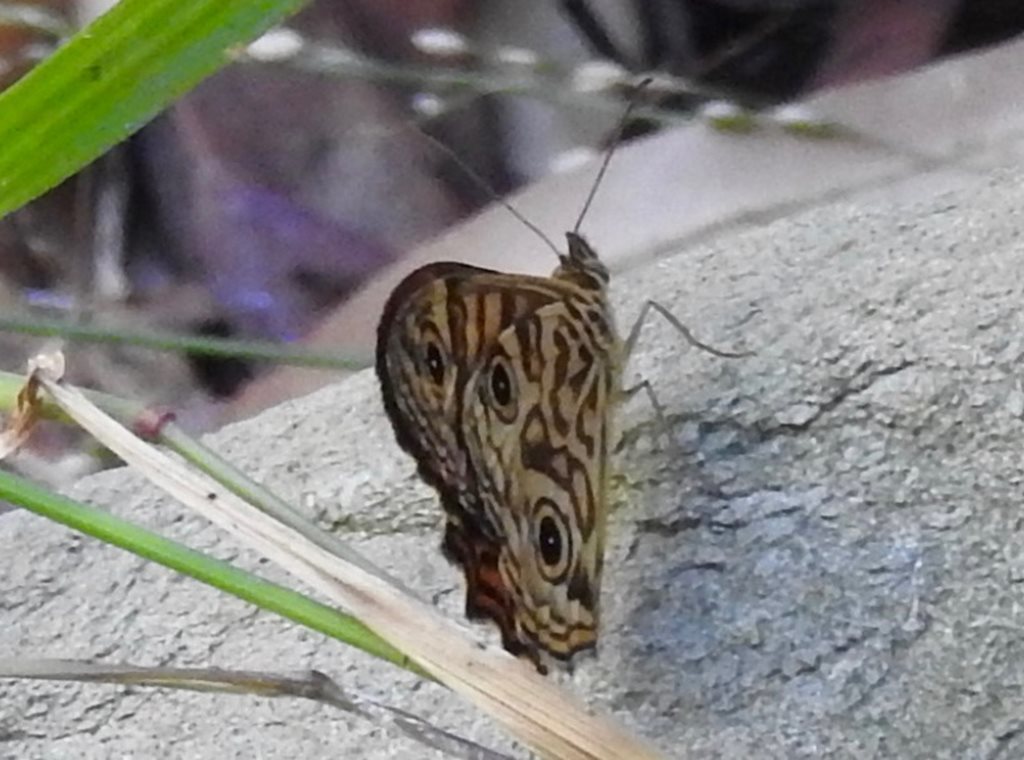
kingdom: Animalia
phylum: Arthropoda
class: Insecta
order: Lepidoptera
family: Nymphalidae
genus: Geitoneura
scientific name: Geitoneura acantha
